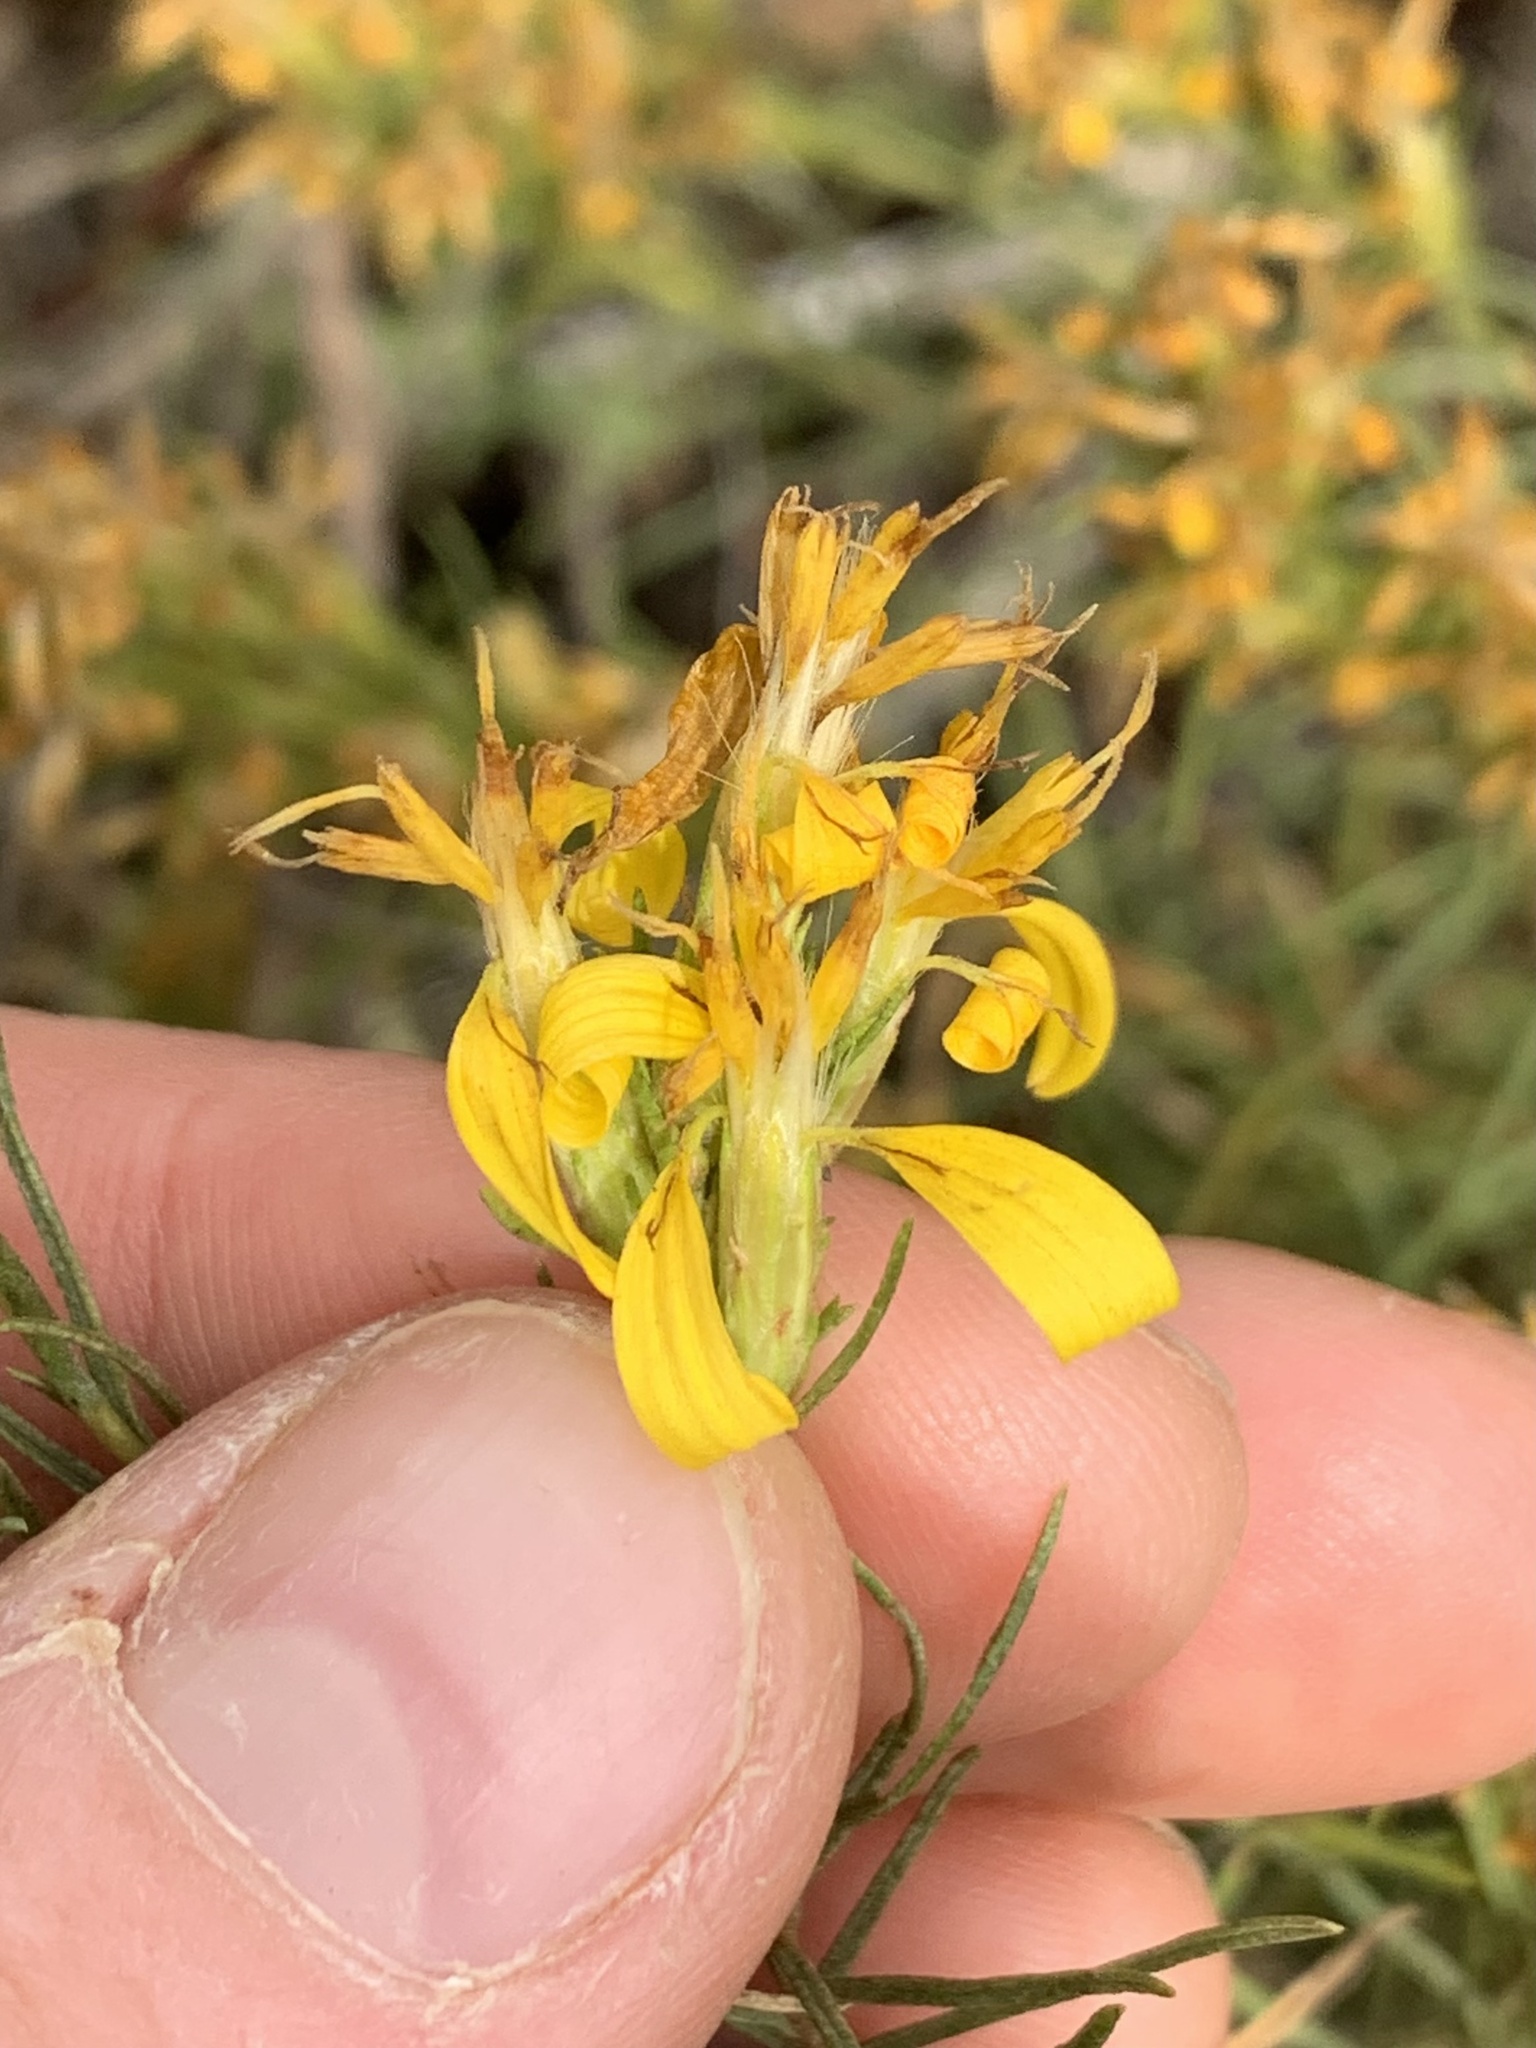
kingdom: Plantae
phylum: Tracheophyta
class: Magnoliopsida
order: Asterales
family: Asteraceae
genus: Ericameria
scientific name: Ericameria bloomeri
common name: Bloomer's goldenbush
